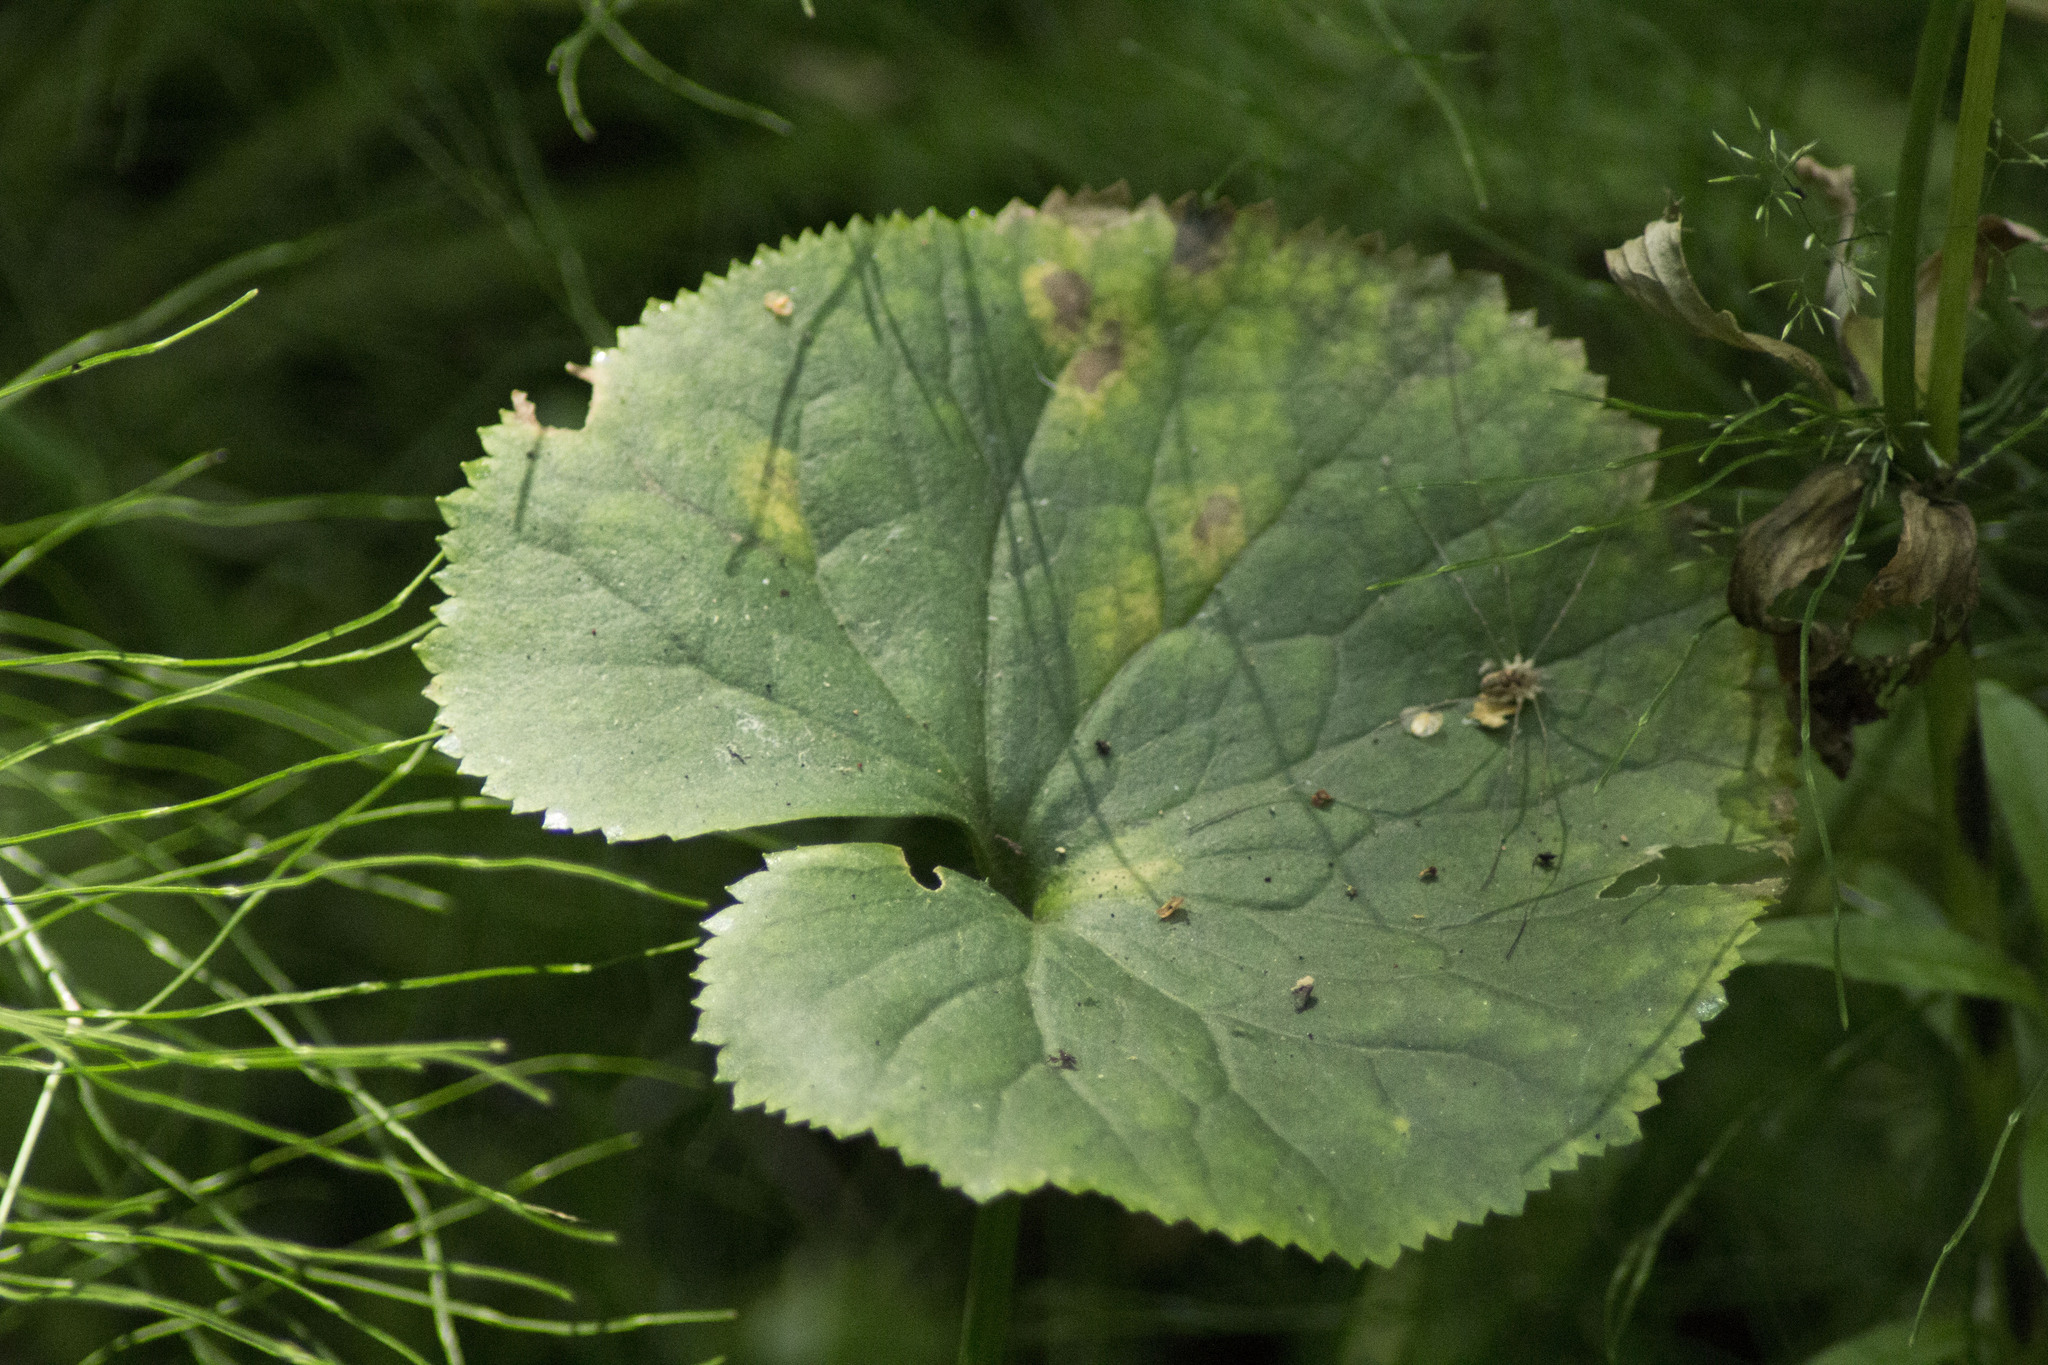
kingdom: Plantae
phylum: Tracheophyta
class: Magnoliopsida
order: Ranunculales
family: Ranunculaceae
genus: Caltha
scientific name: Caltha palustris
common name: Marsh marigold
